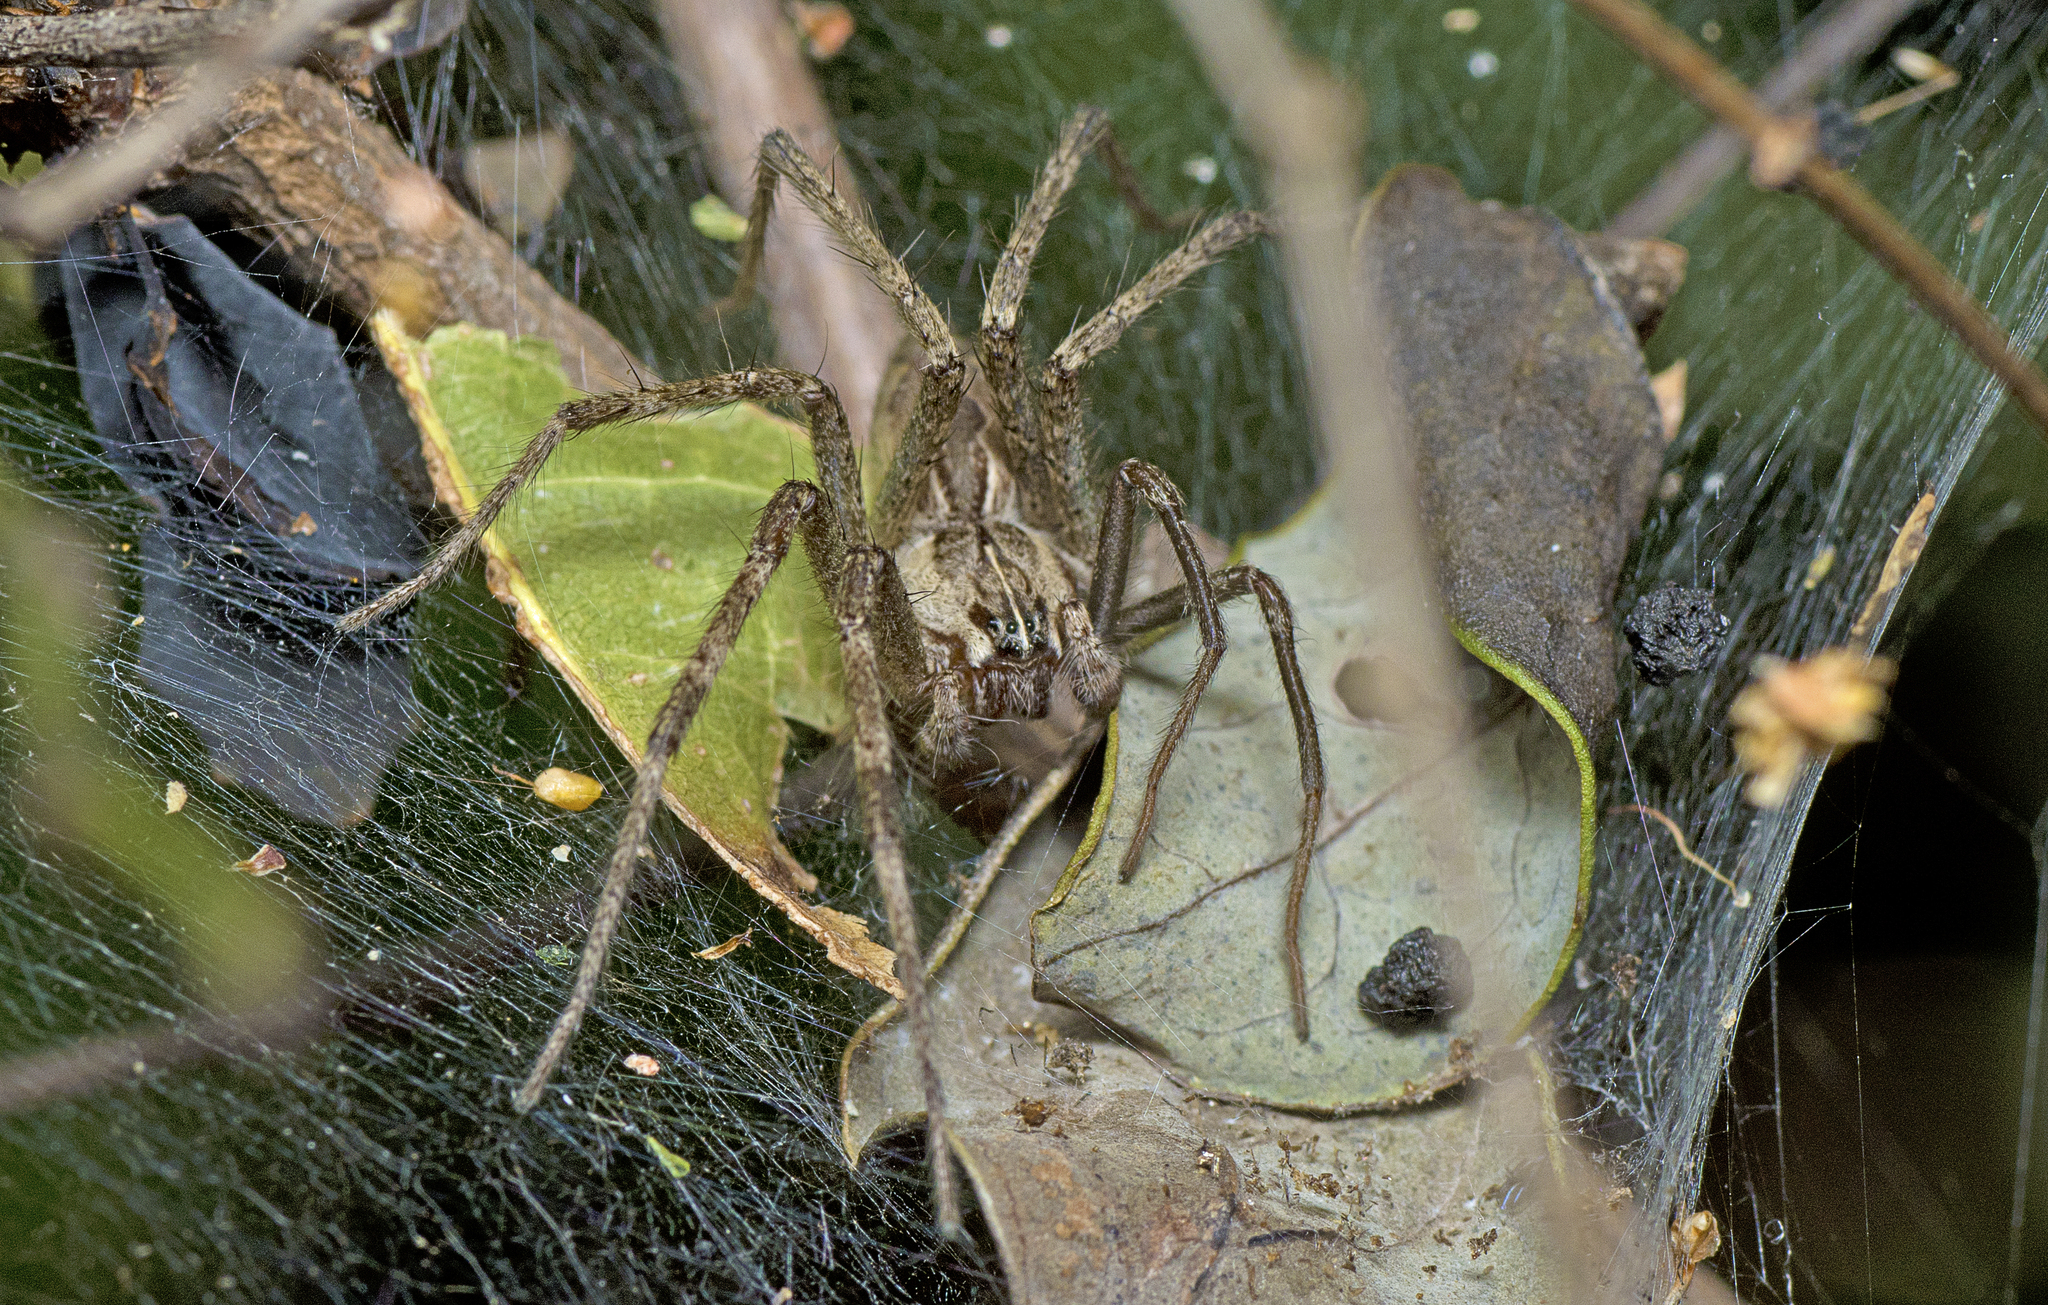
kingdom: Animalia
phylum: Arthropoda
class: Arachnida
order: Araneae
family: Pisauridae
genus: Dendrolycosa
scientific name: Dendrolycosa icadia
